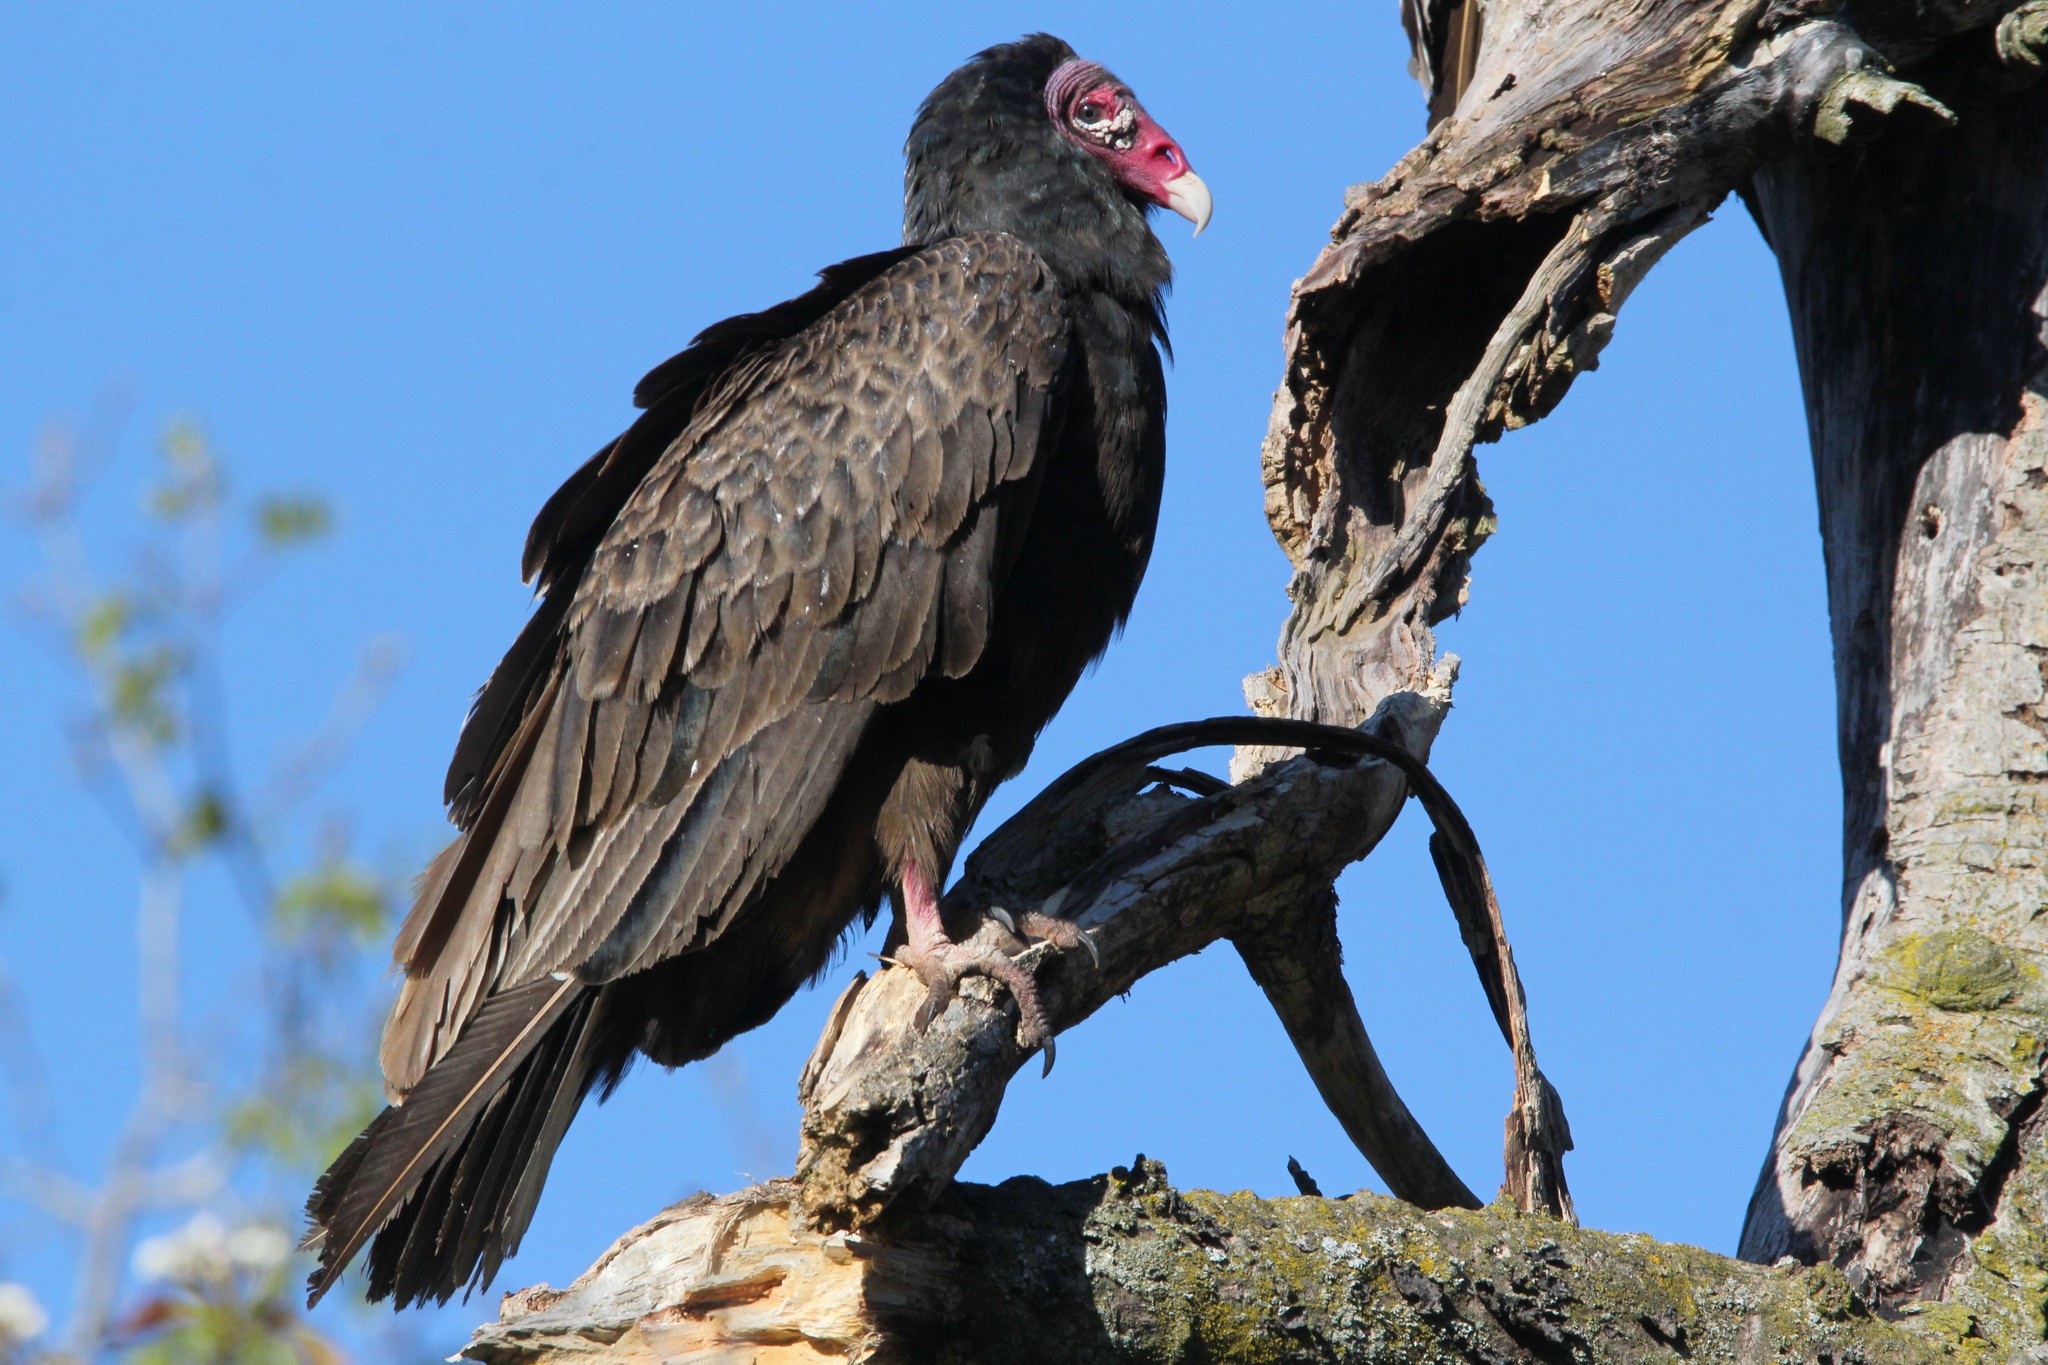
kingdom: Animalia
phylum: Chordata
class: Aves
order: Accipitriformes
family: Cathartidae
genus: Cathartes
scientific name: Cathartes aura
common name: Turkey vulture
